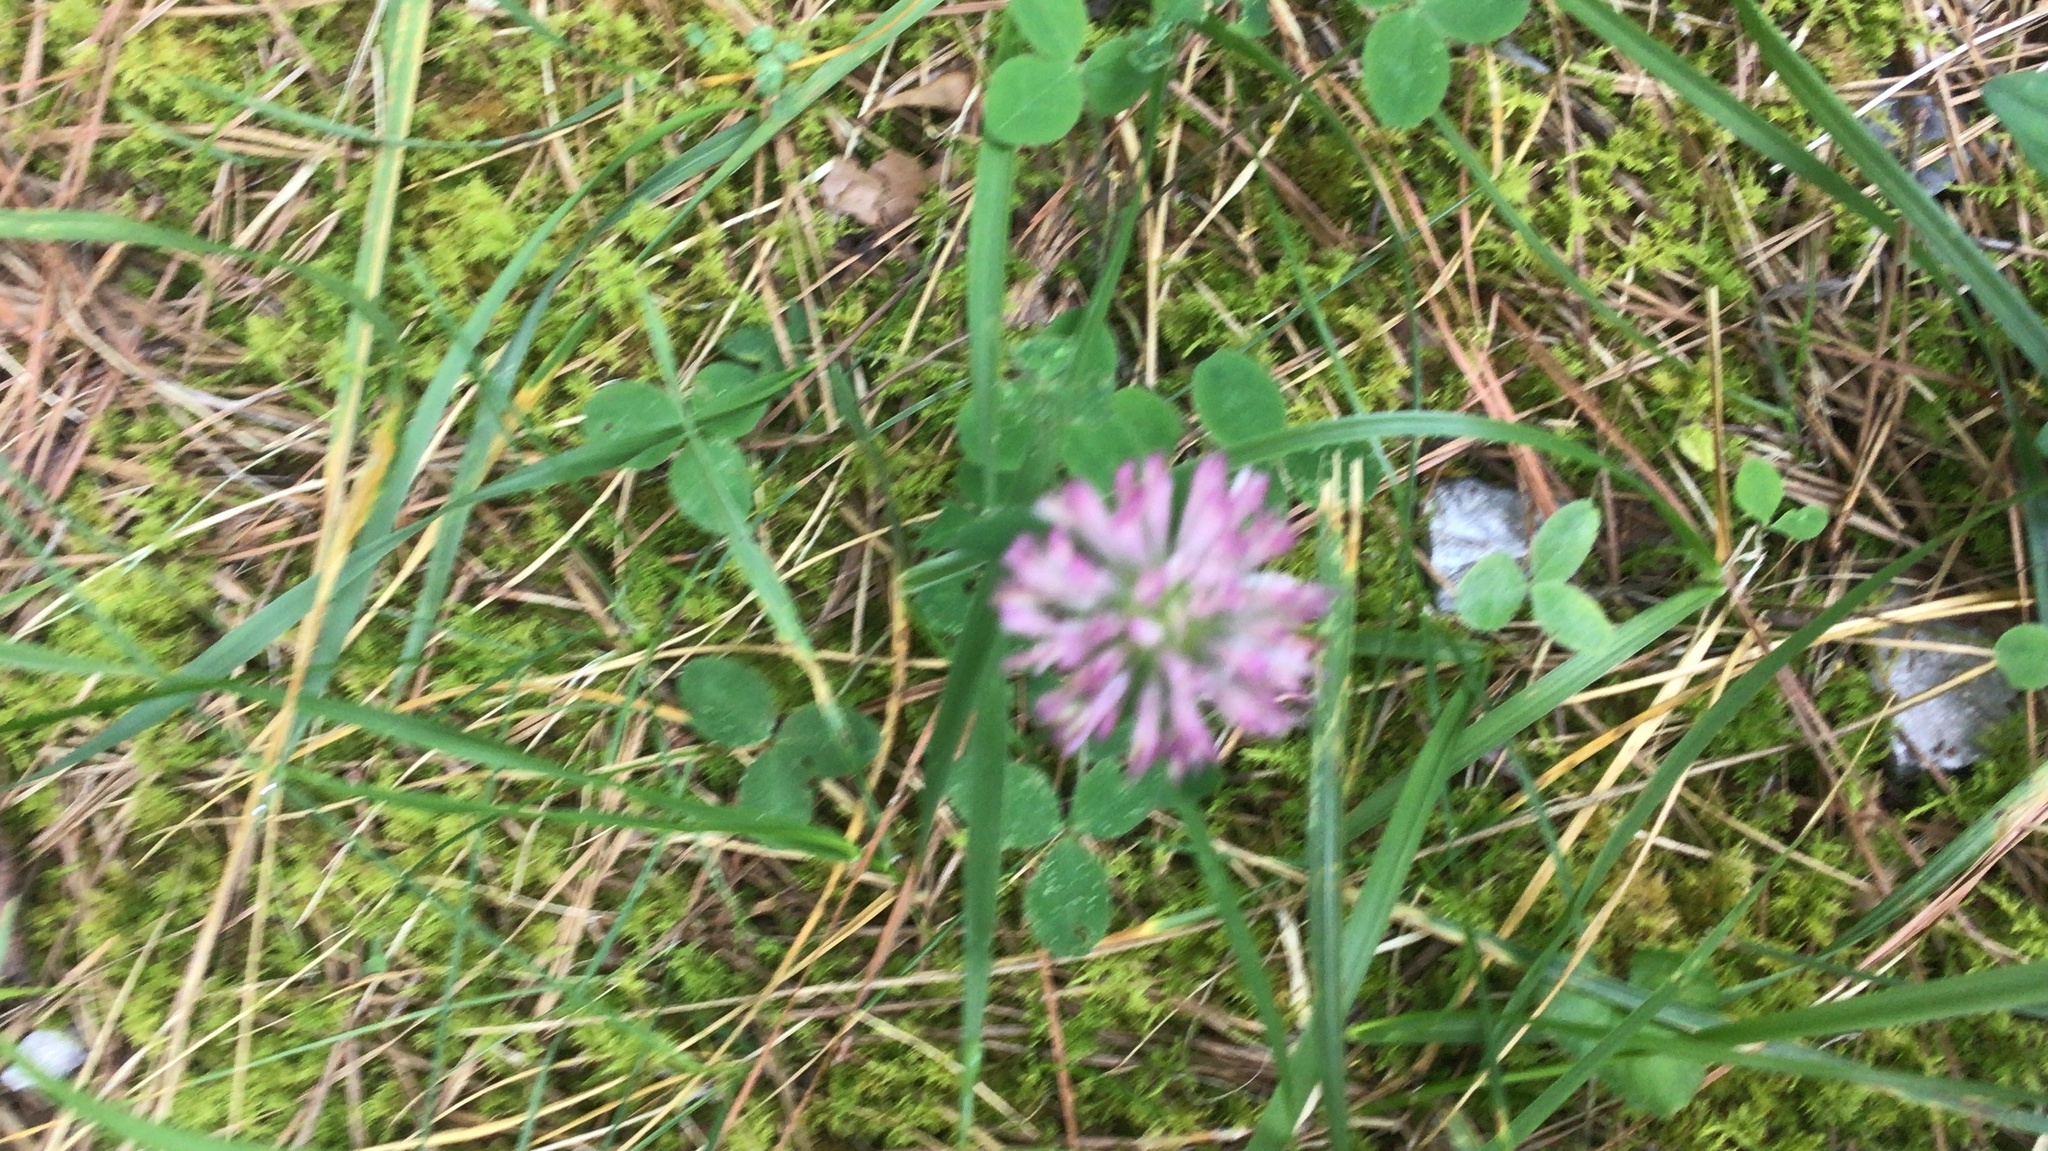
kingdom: Plantae
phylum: Tracheophyta
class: Magnoliopsida
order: Fabales
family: Fabaceae
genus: Trifolium
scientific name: Trifolium pratense
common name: Red clover
